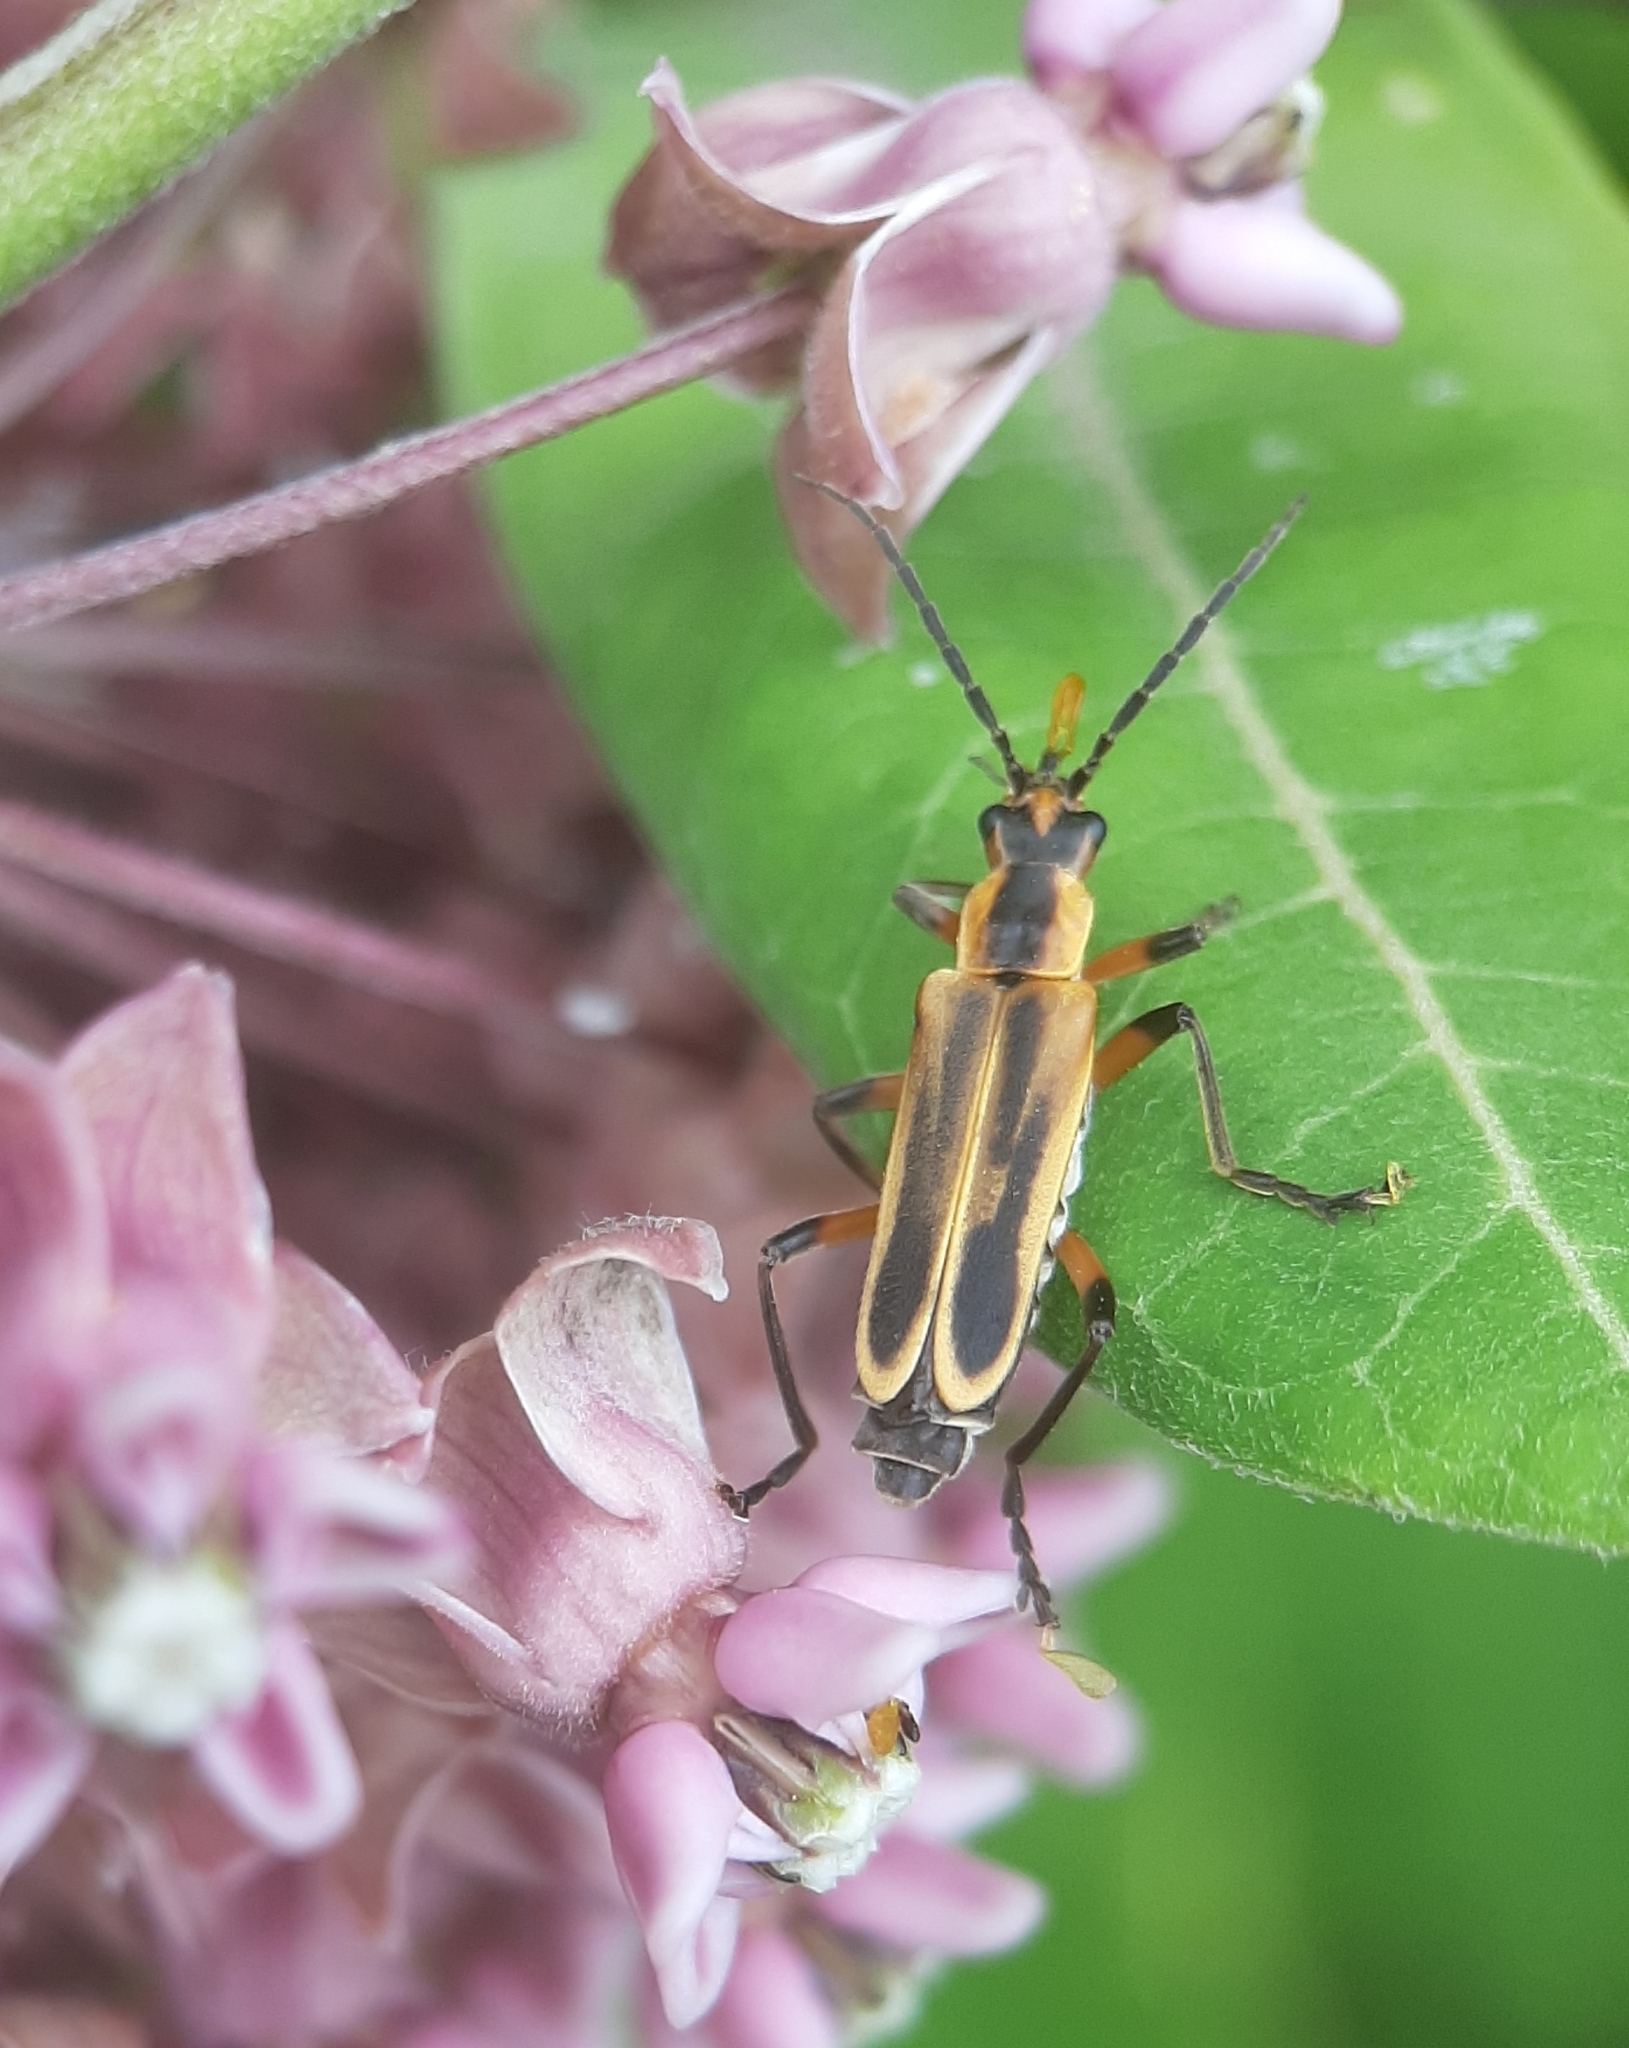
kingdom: Animalia
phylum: Arthropoda
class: Insecta
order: Coleoptera
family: Cantharidae
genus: Chauliognathus
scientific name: Chauliognathus marginatus
